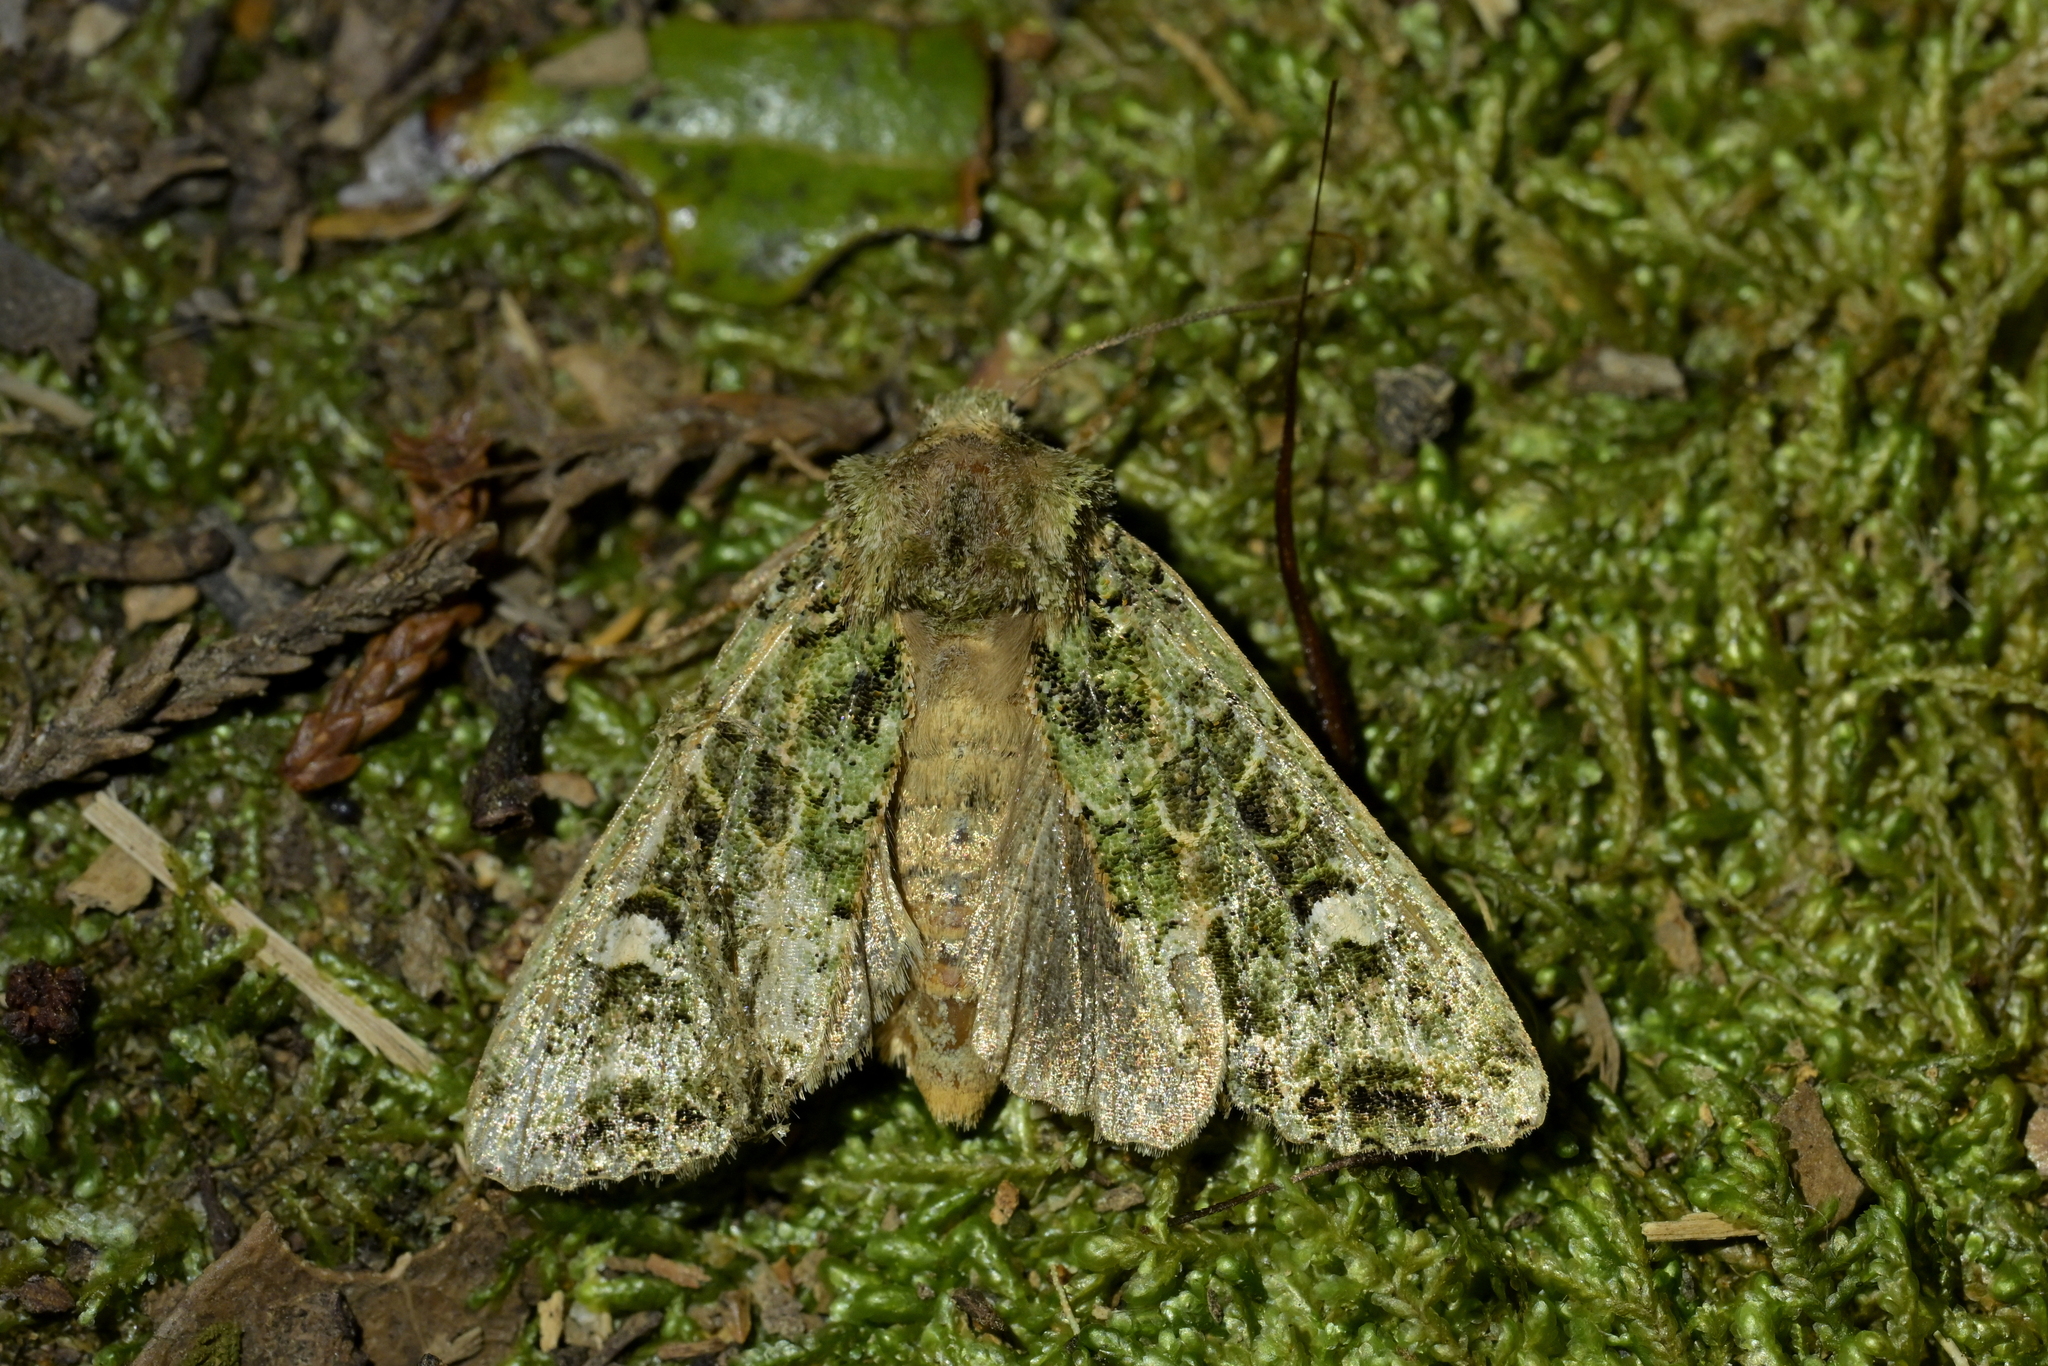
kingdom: Animalia
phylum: Arthropoda
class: Insecta
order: Lepidoptera
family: Noctuidae
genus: Ichneutica
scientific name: Ichneutica
